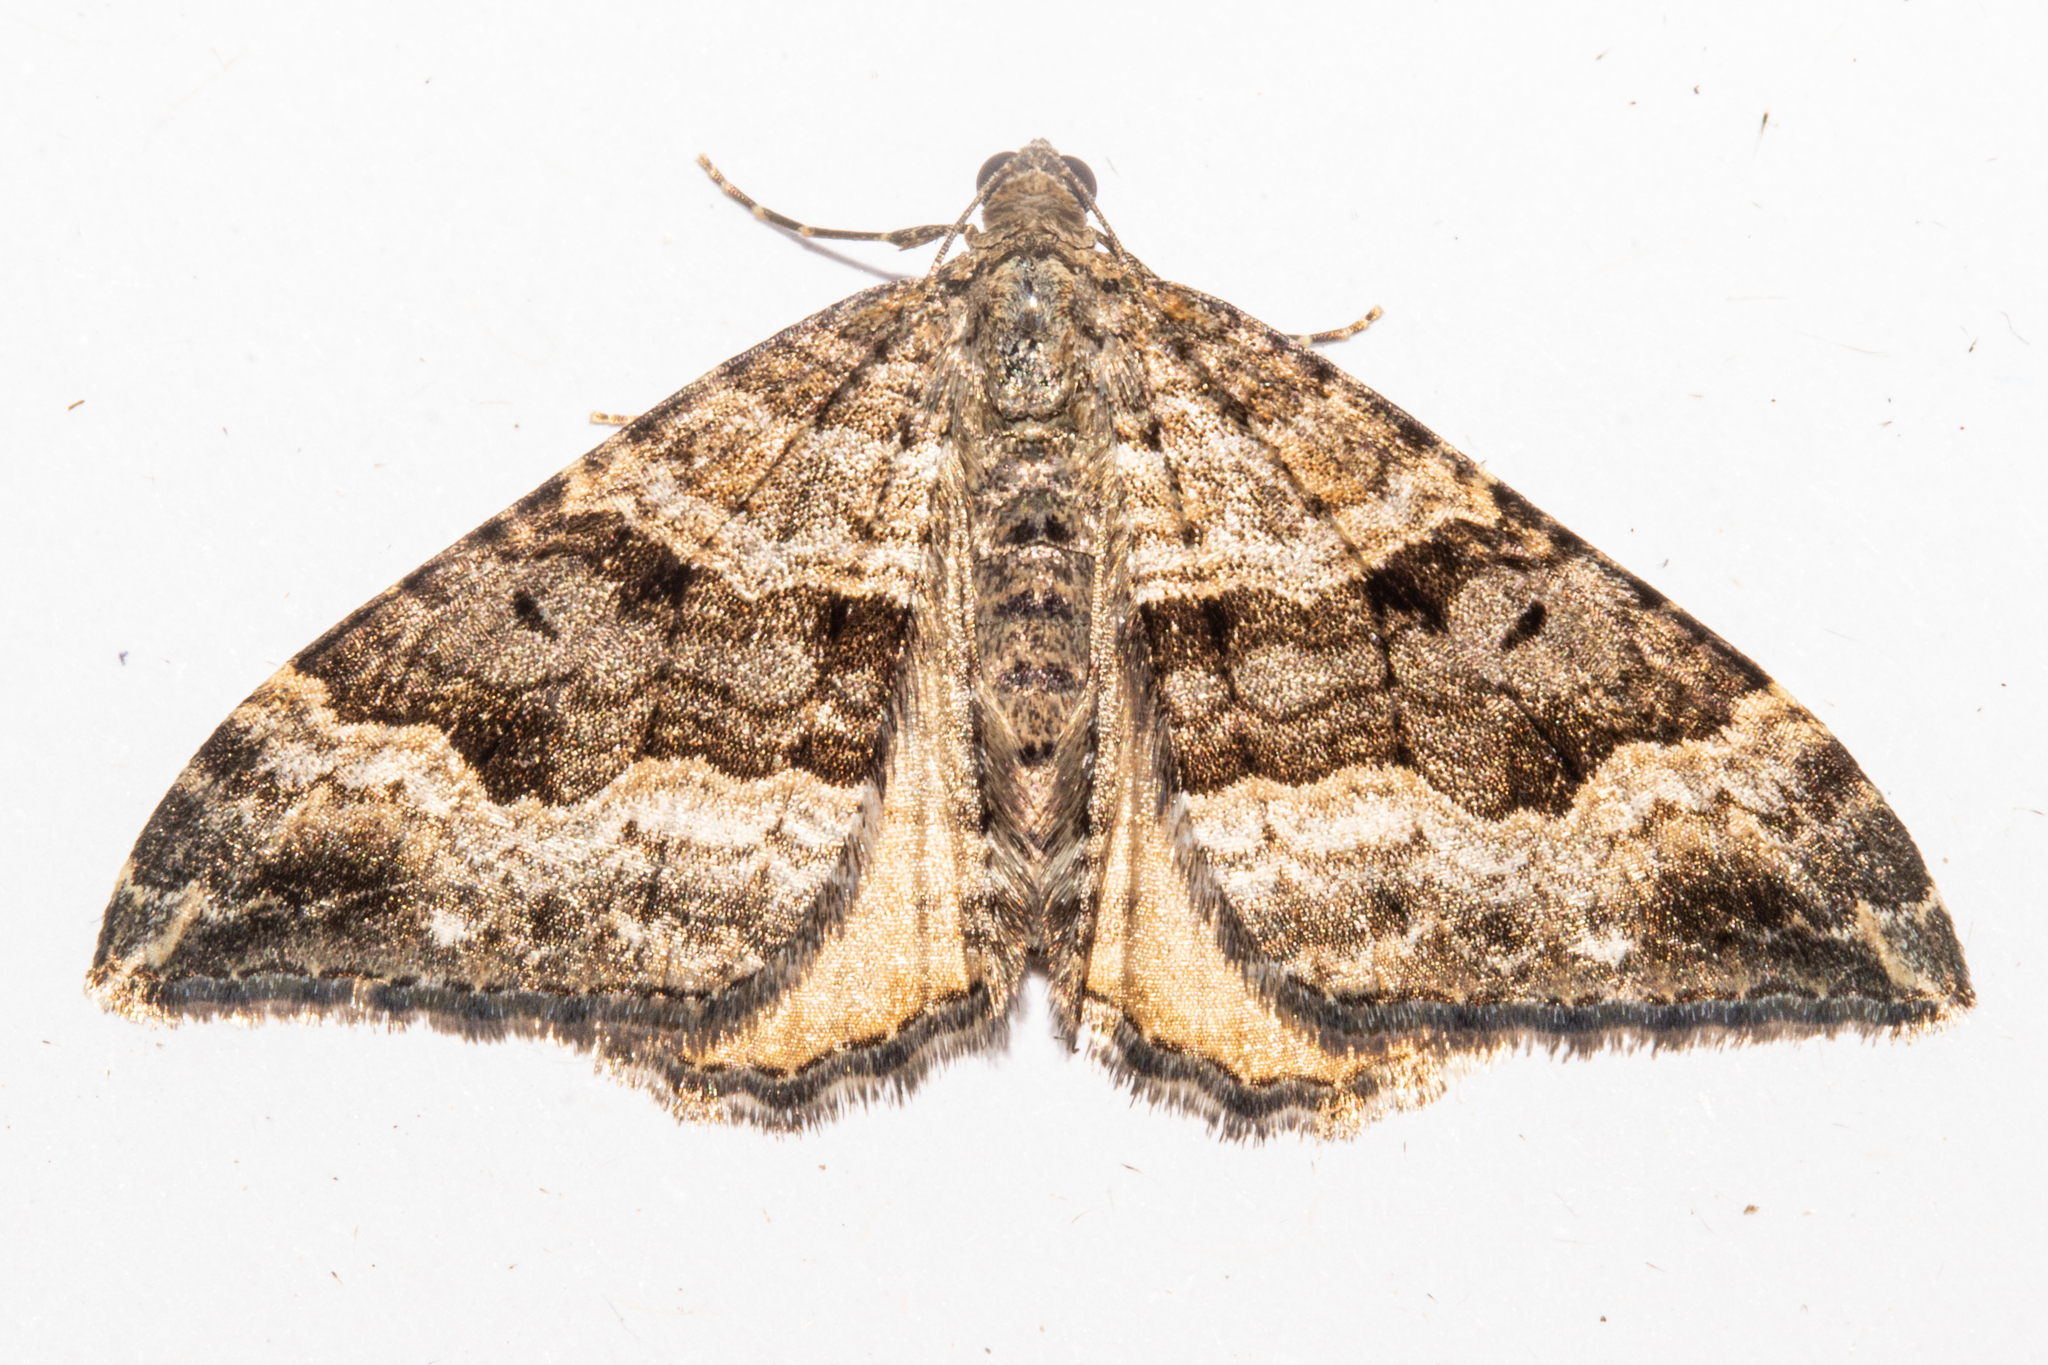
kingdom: Animalia
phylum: Arthropoda
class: Insecta
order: Lepidoptera
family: Geometridae
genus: Hydriomena
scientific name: Hydriomena deltoidata
